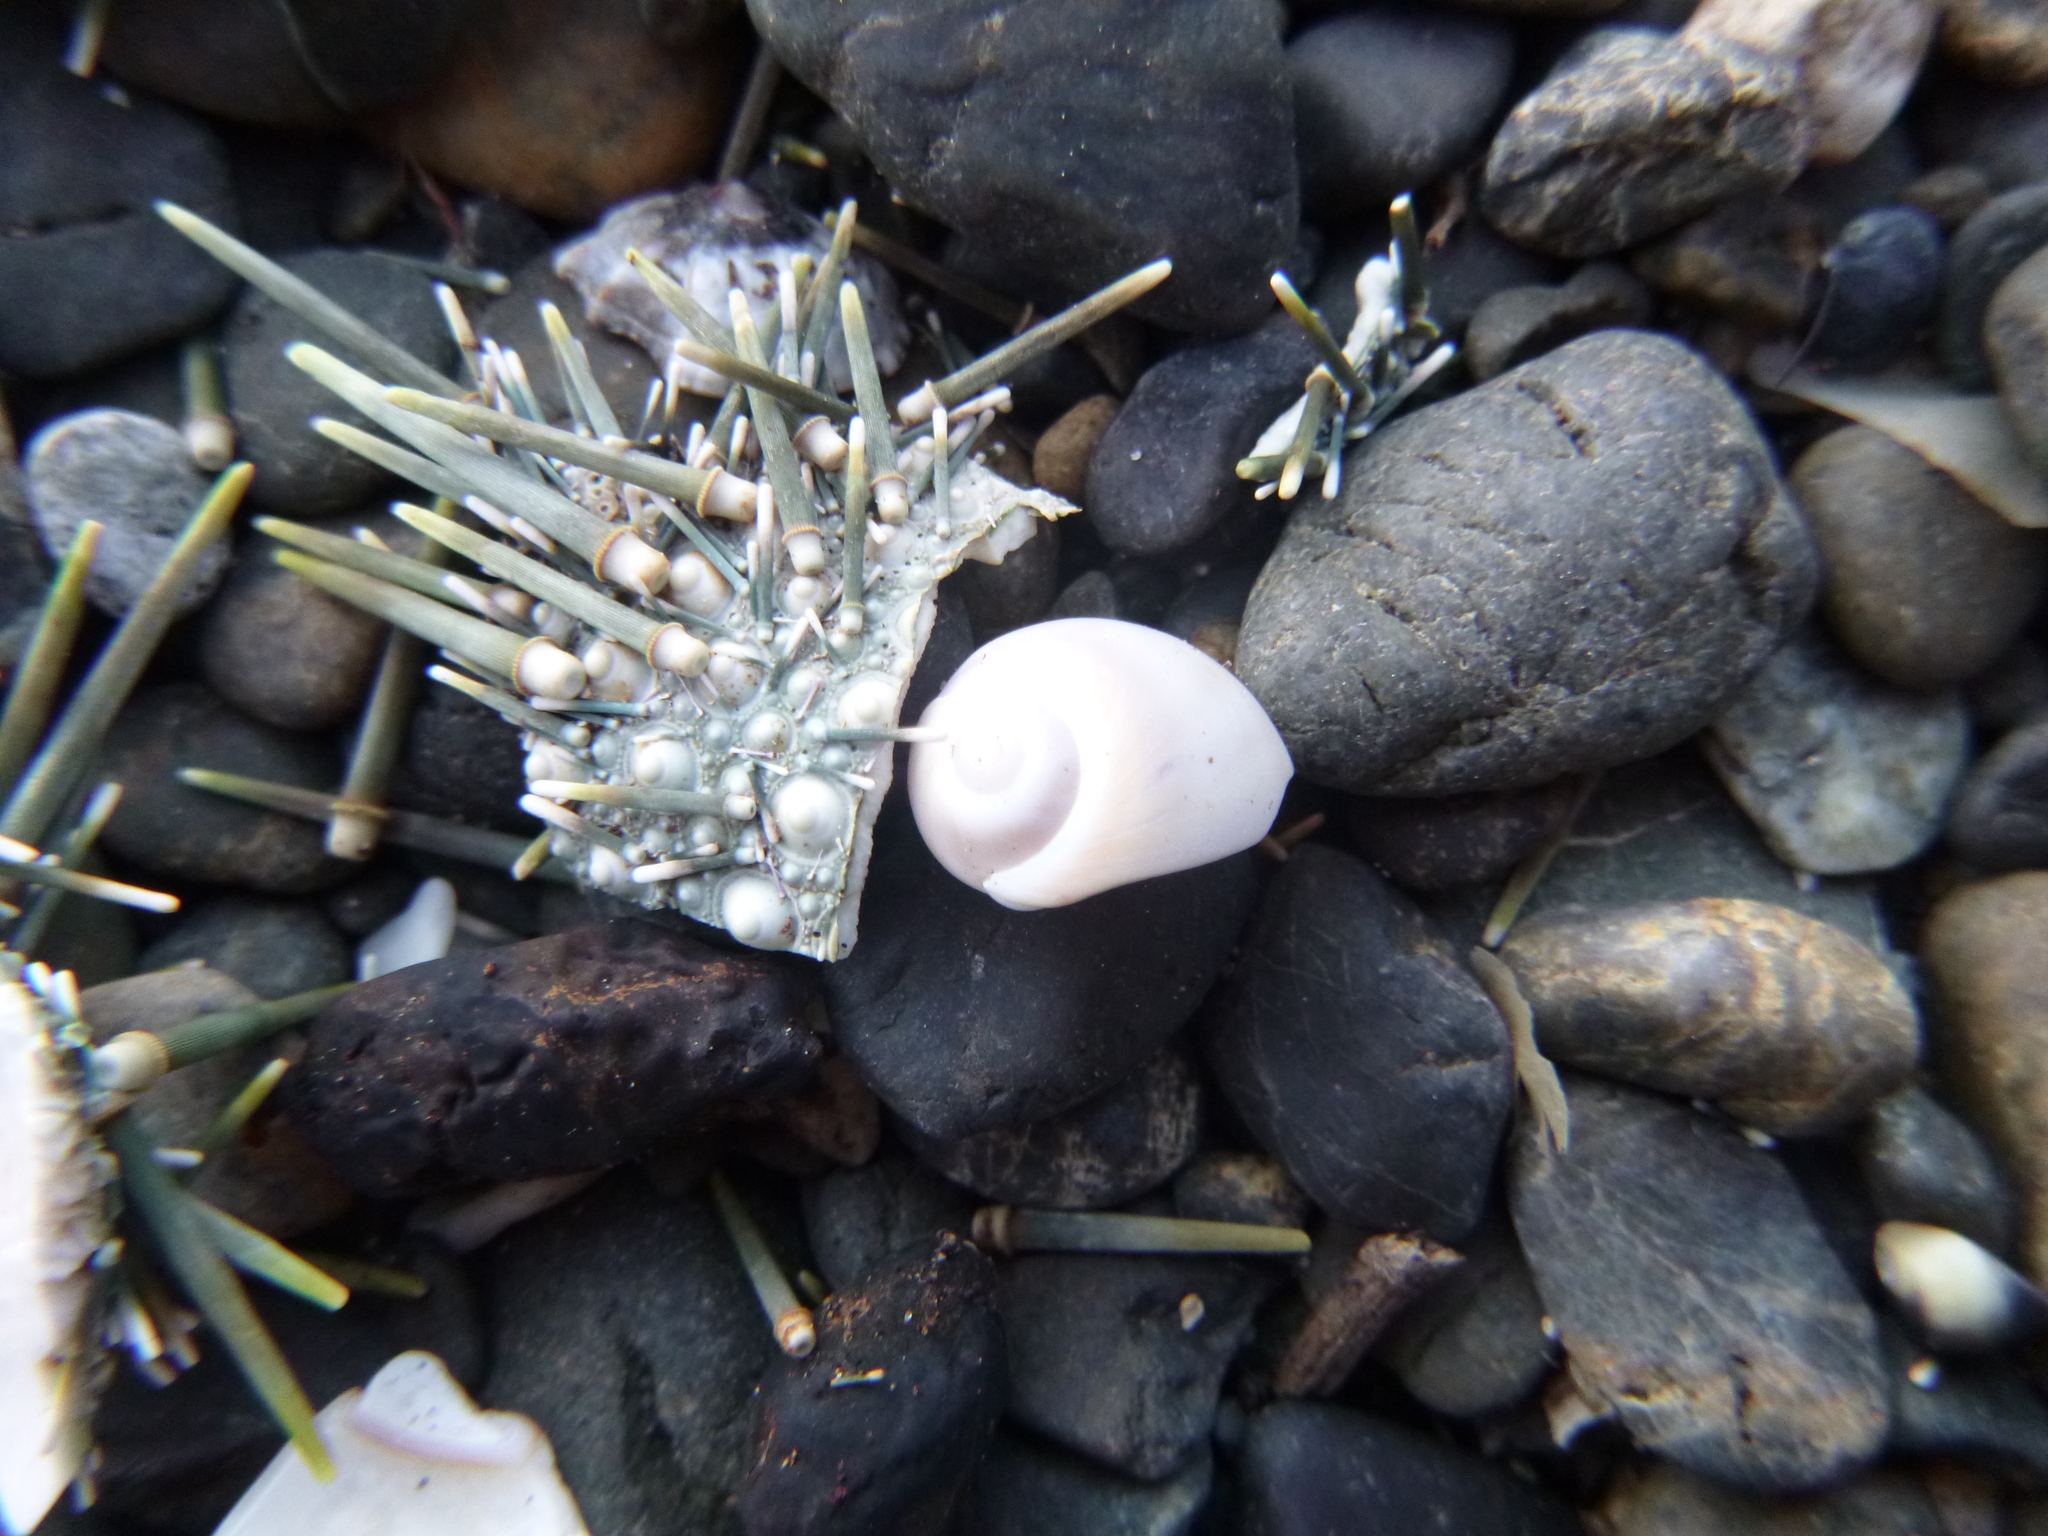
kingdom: Animalia
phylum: Mollusca
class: Gastropoda
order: Littorinimorpha
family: Naticidae
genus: Notocochlis
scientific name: Notocochlis gualteriana
